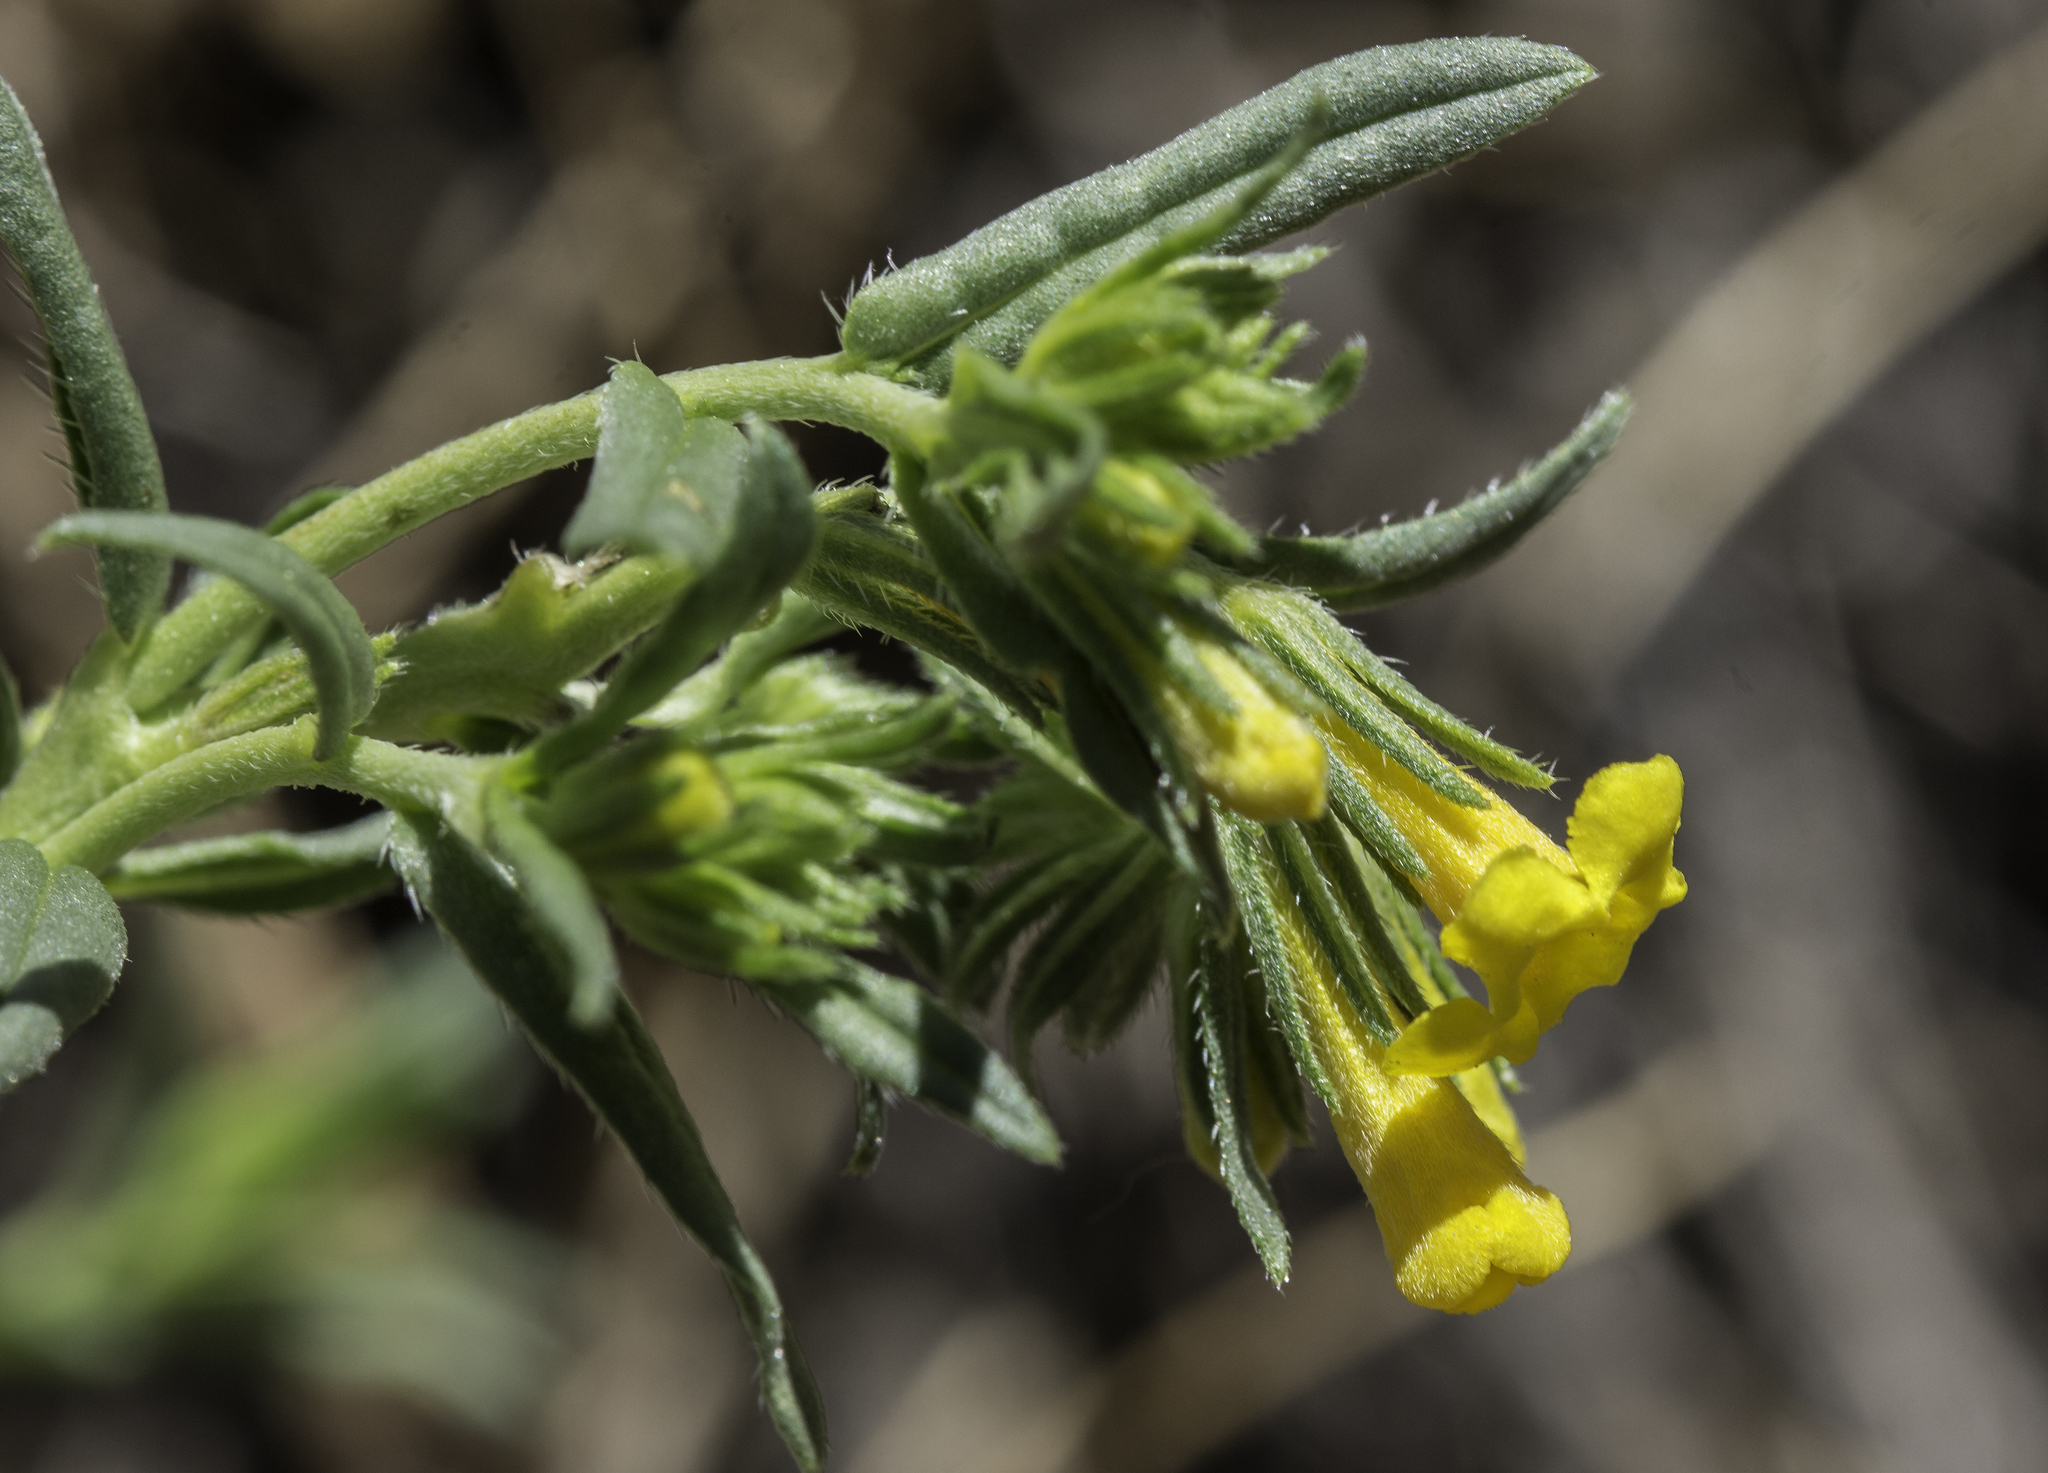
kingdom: Plantae
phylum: Tracheophyta
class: Magnoliopsida
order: Boraginales
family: Boraginaceae
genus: Lithospermum
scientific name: Lithospermum multiflorum
